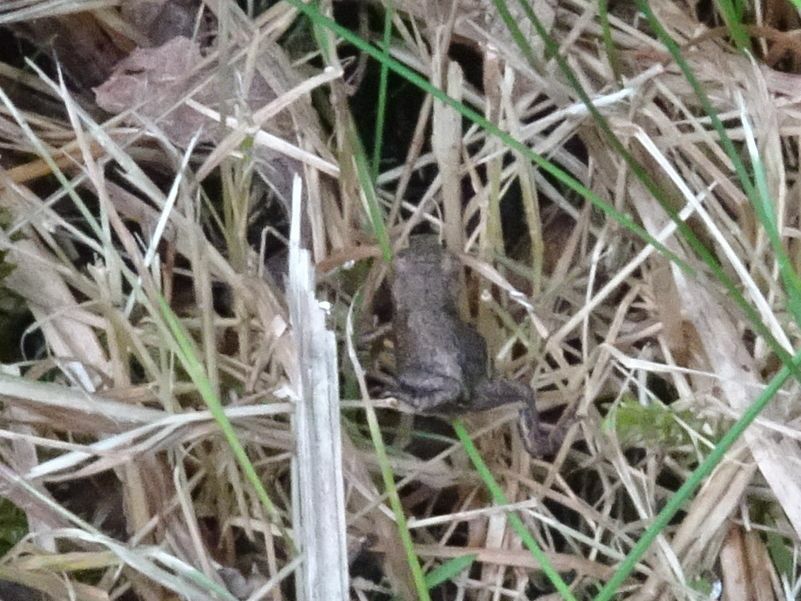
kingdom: Animalia
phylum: Chordata
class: Amphibia
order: Anura
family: Bufonidae
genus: Bufo
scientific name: Bufo bufo
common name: Common toad
